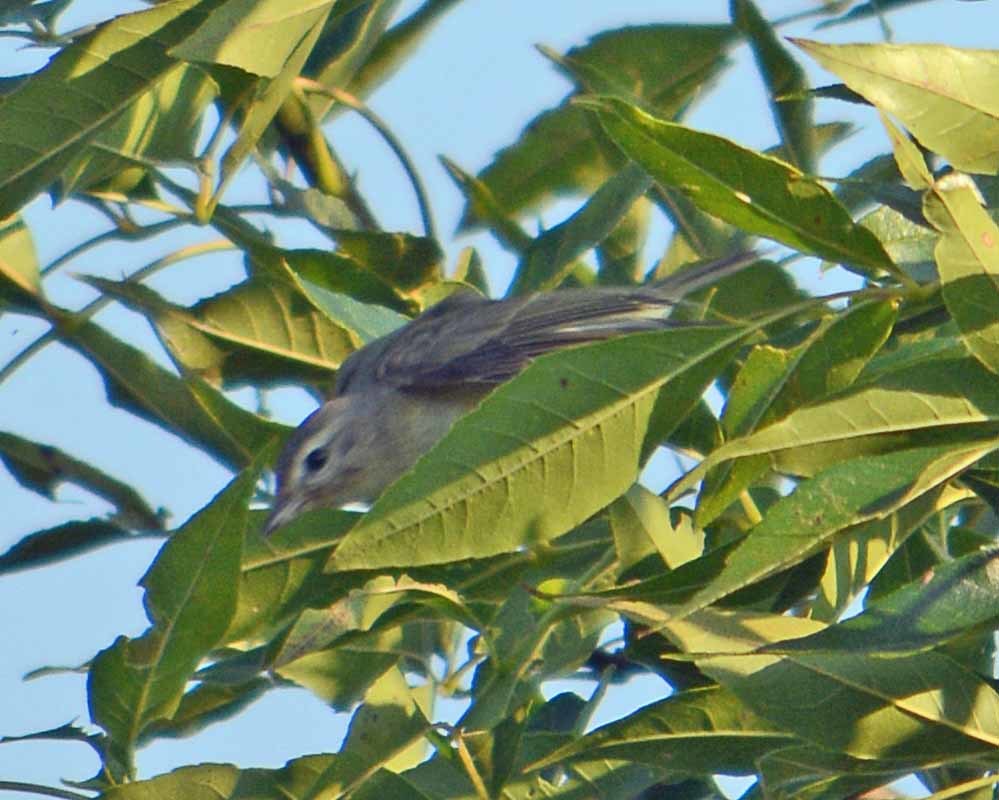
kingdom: Animalia
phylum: Chordata
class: Aves
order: Passeriformes
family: Vireonidae
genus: Vireo
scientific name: Vireo gilvus
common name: Warbling vireo
